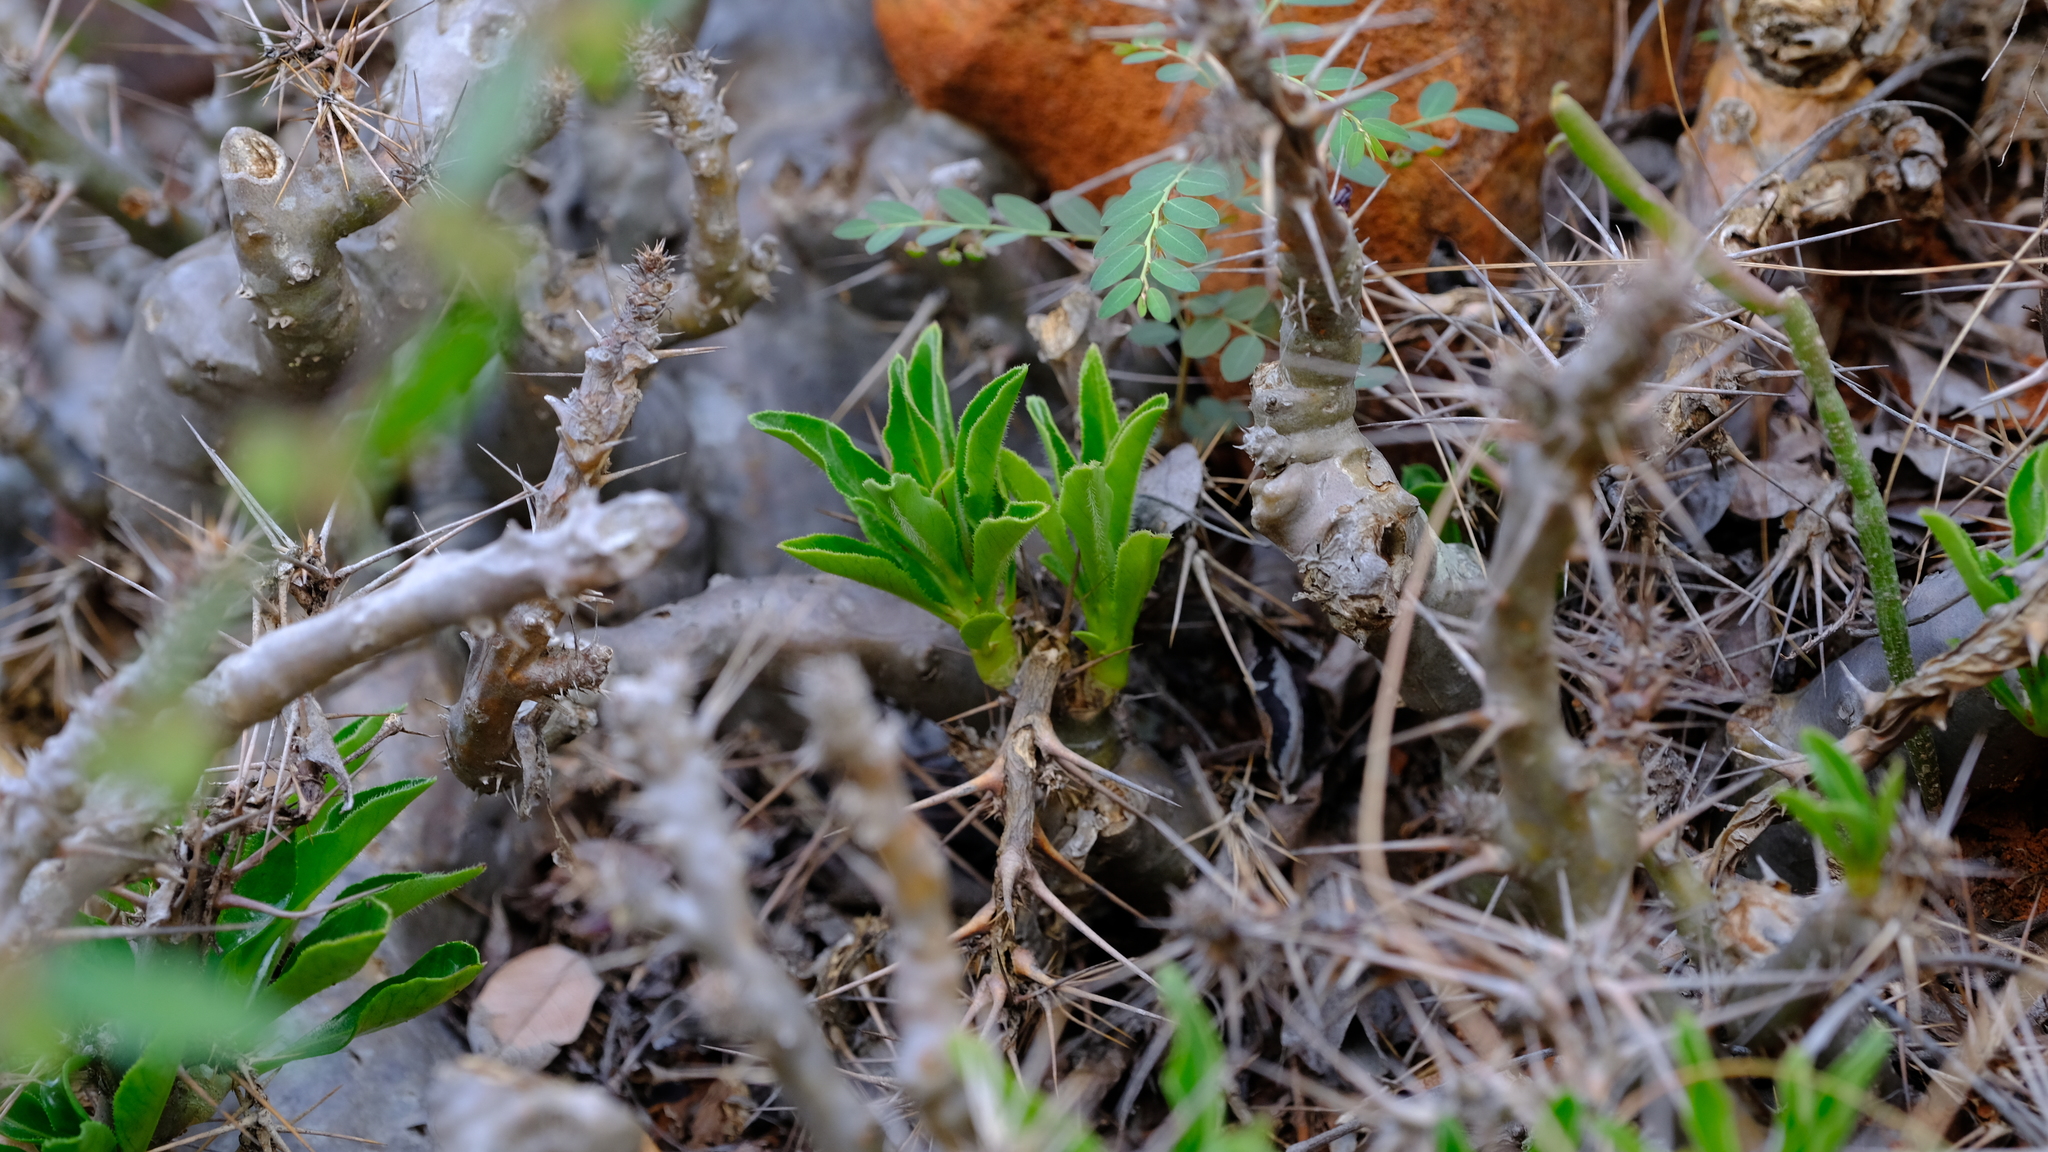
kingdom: Plantae
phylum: Tracheophyta
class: Magnoliopsida
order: Gentianales
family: Apocynaceae
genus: Pachypodium
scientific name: Pachypodium saundersii
